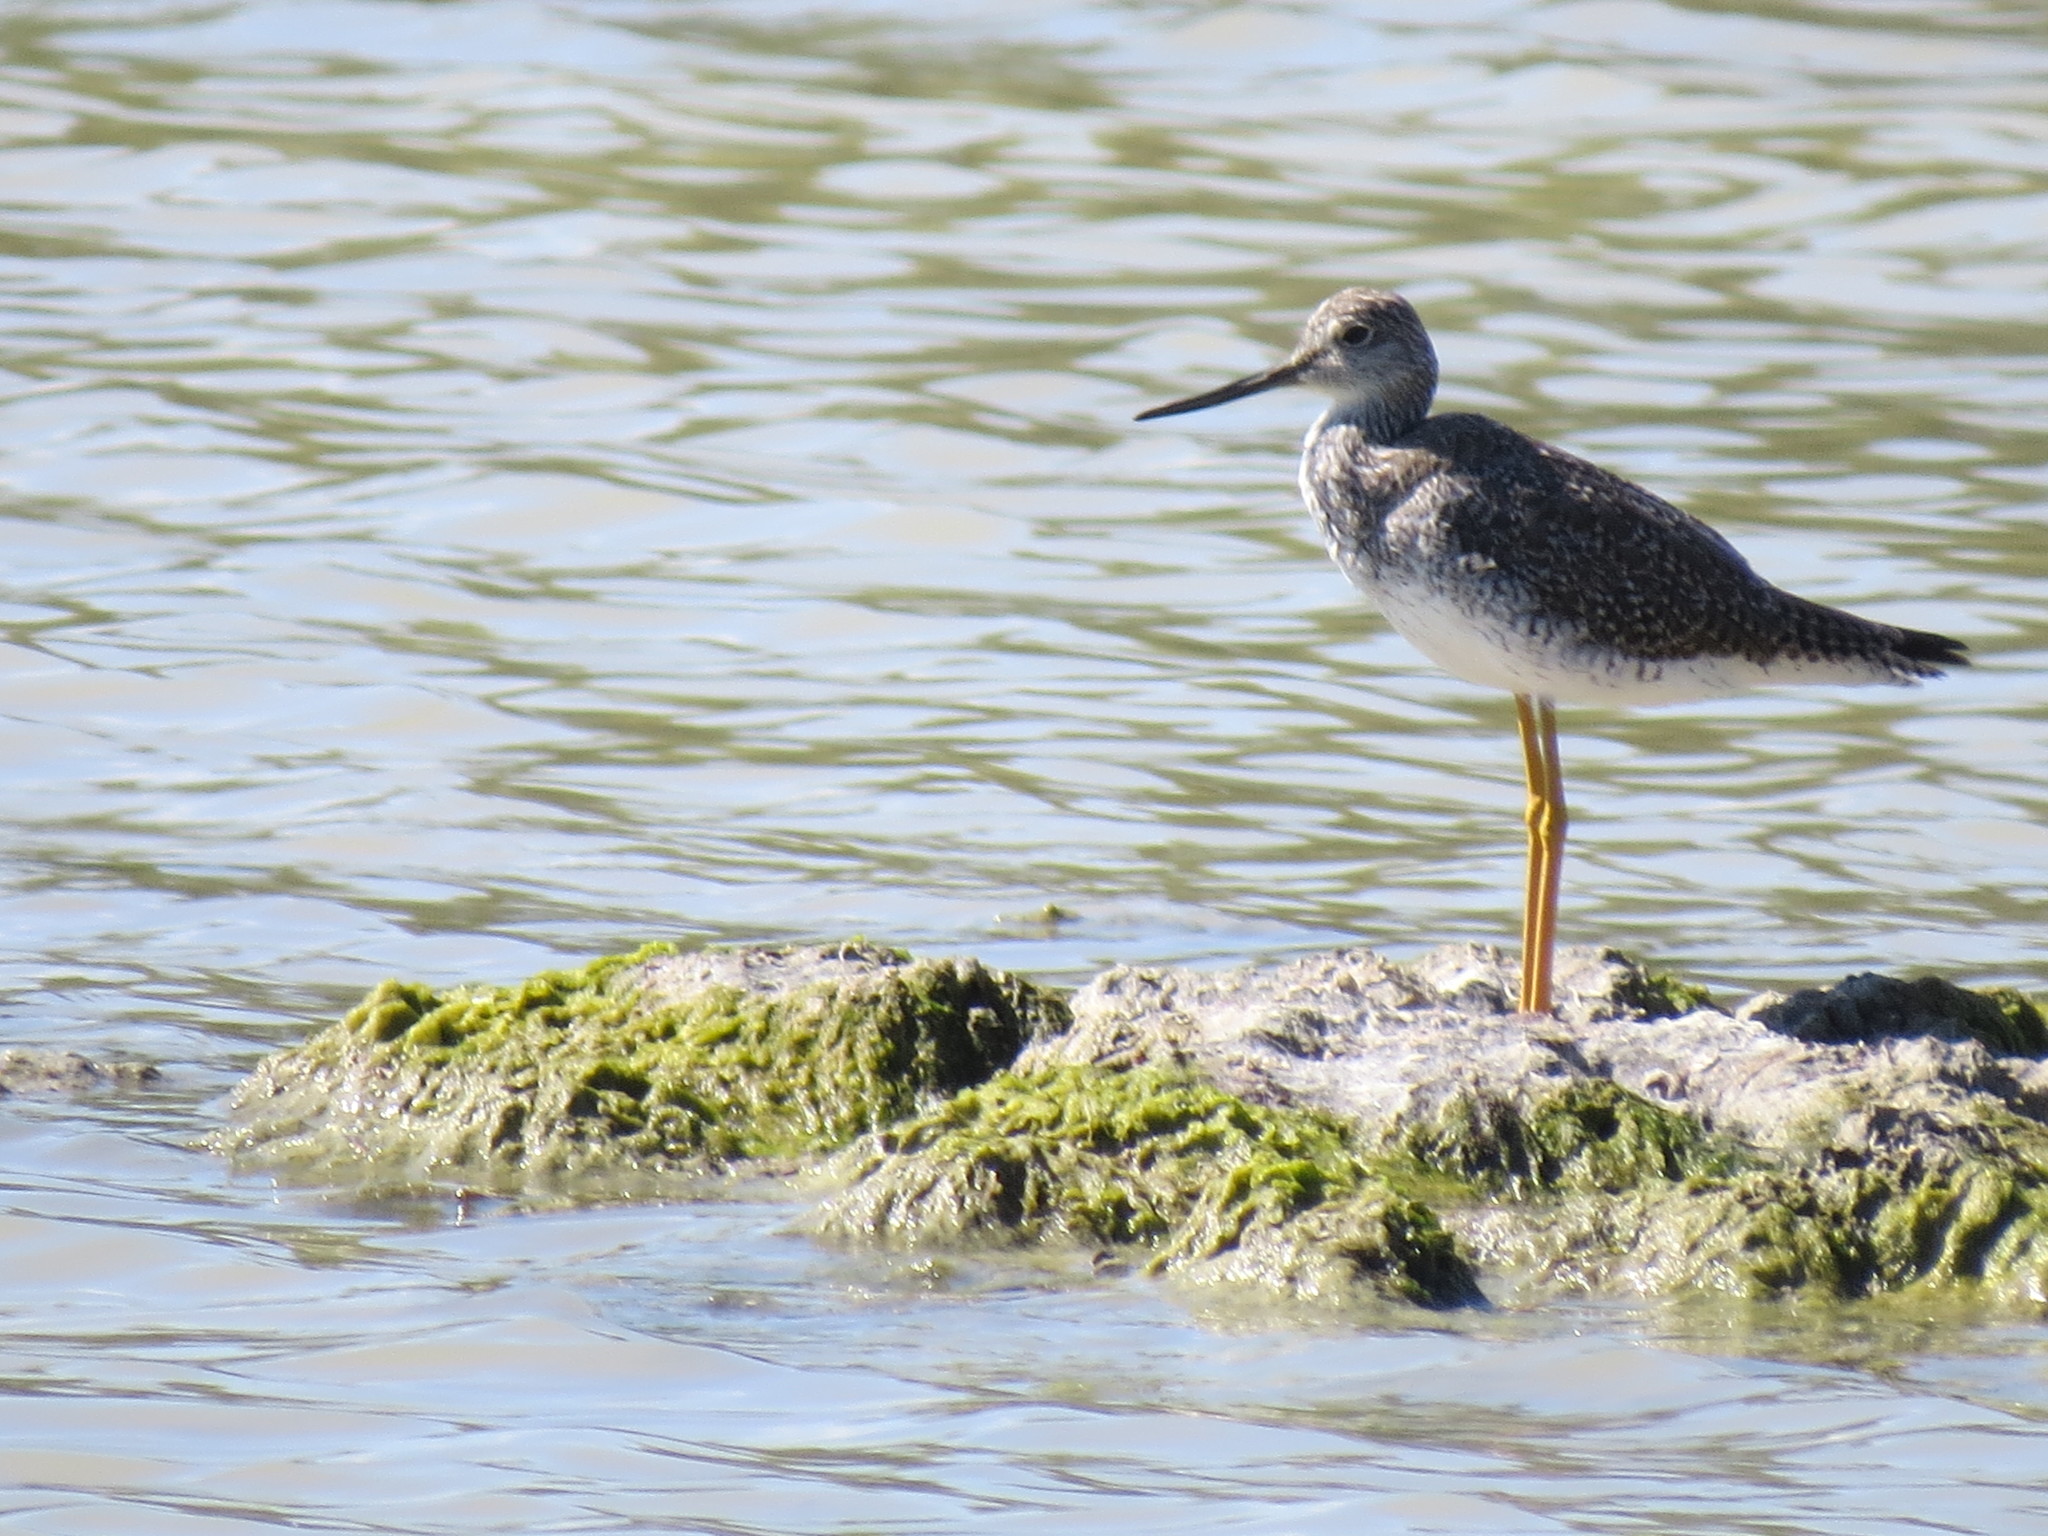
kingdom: Animalia
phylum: Chordata
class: Aves
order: Charadriiformes
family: Scolopacidae
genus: Tringa
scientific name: Tringa melanoleuca
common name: Greater yellowlegs
